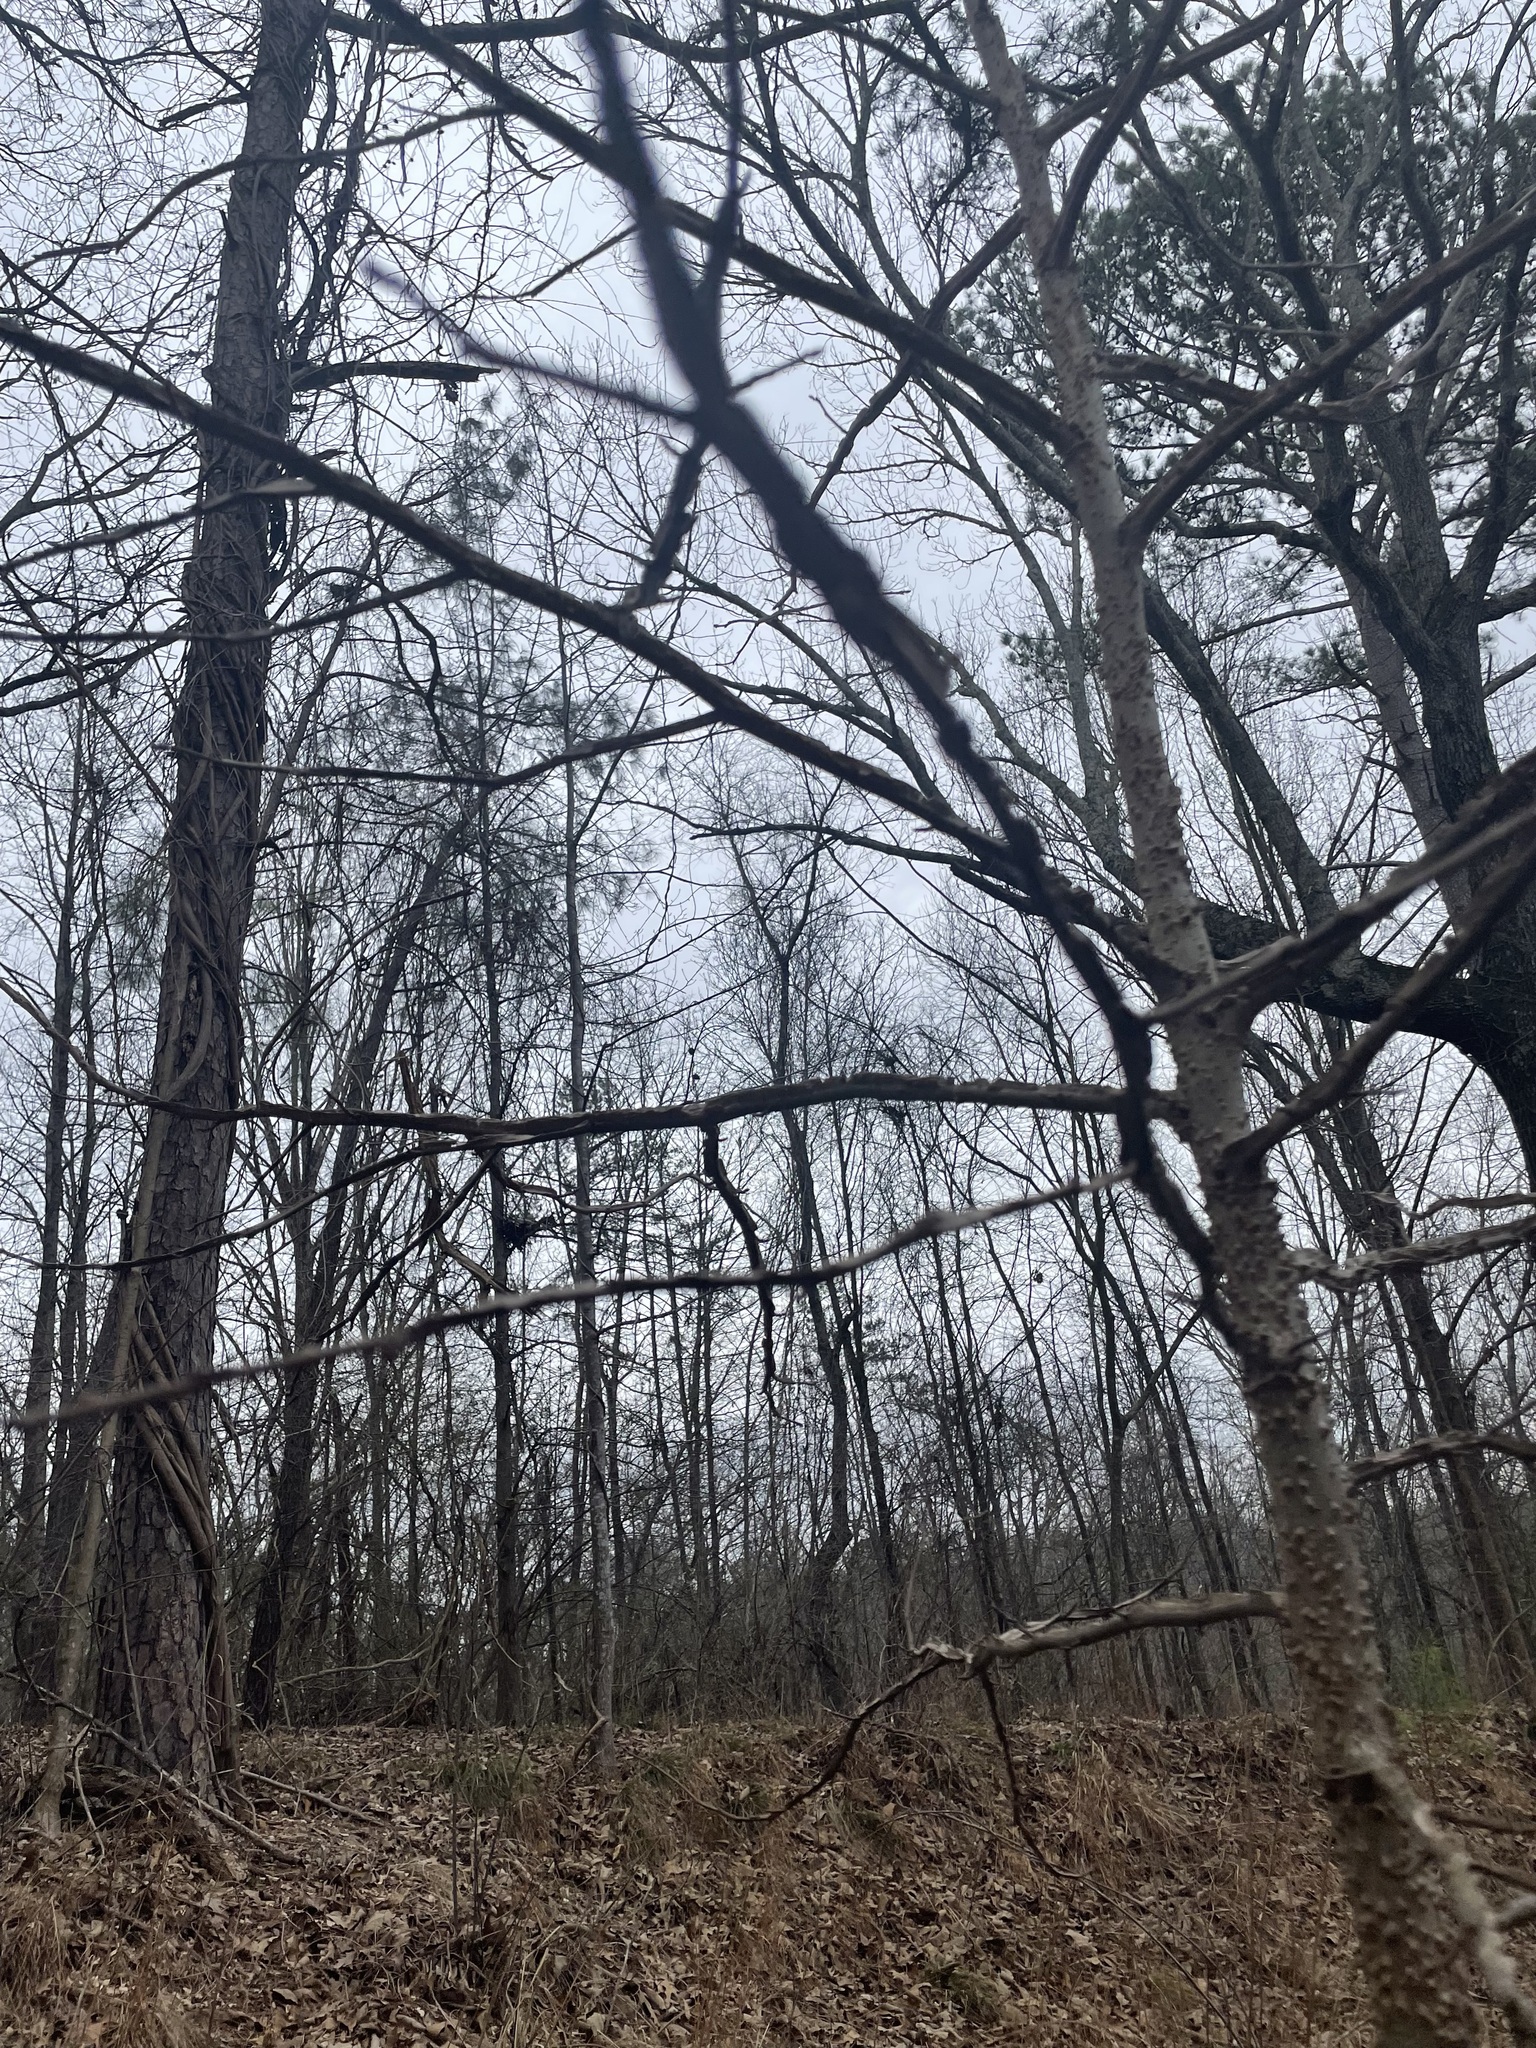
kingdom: Plantae
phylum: Tracheophyta
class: Magnoliopsida
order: Saxifragales
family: Altingiaceae
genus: Liquidambar
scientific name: Liquidambar styraciflua
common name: Sweet gum
